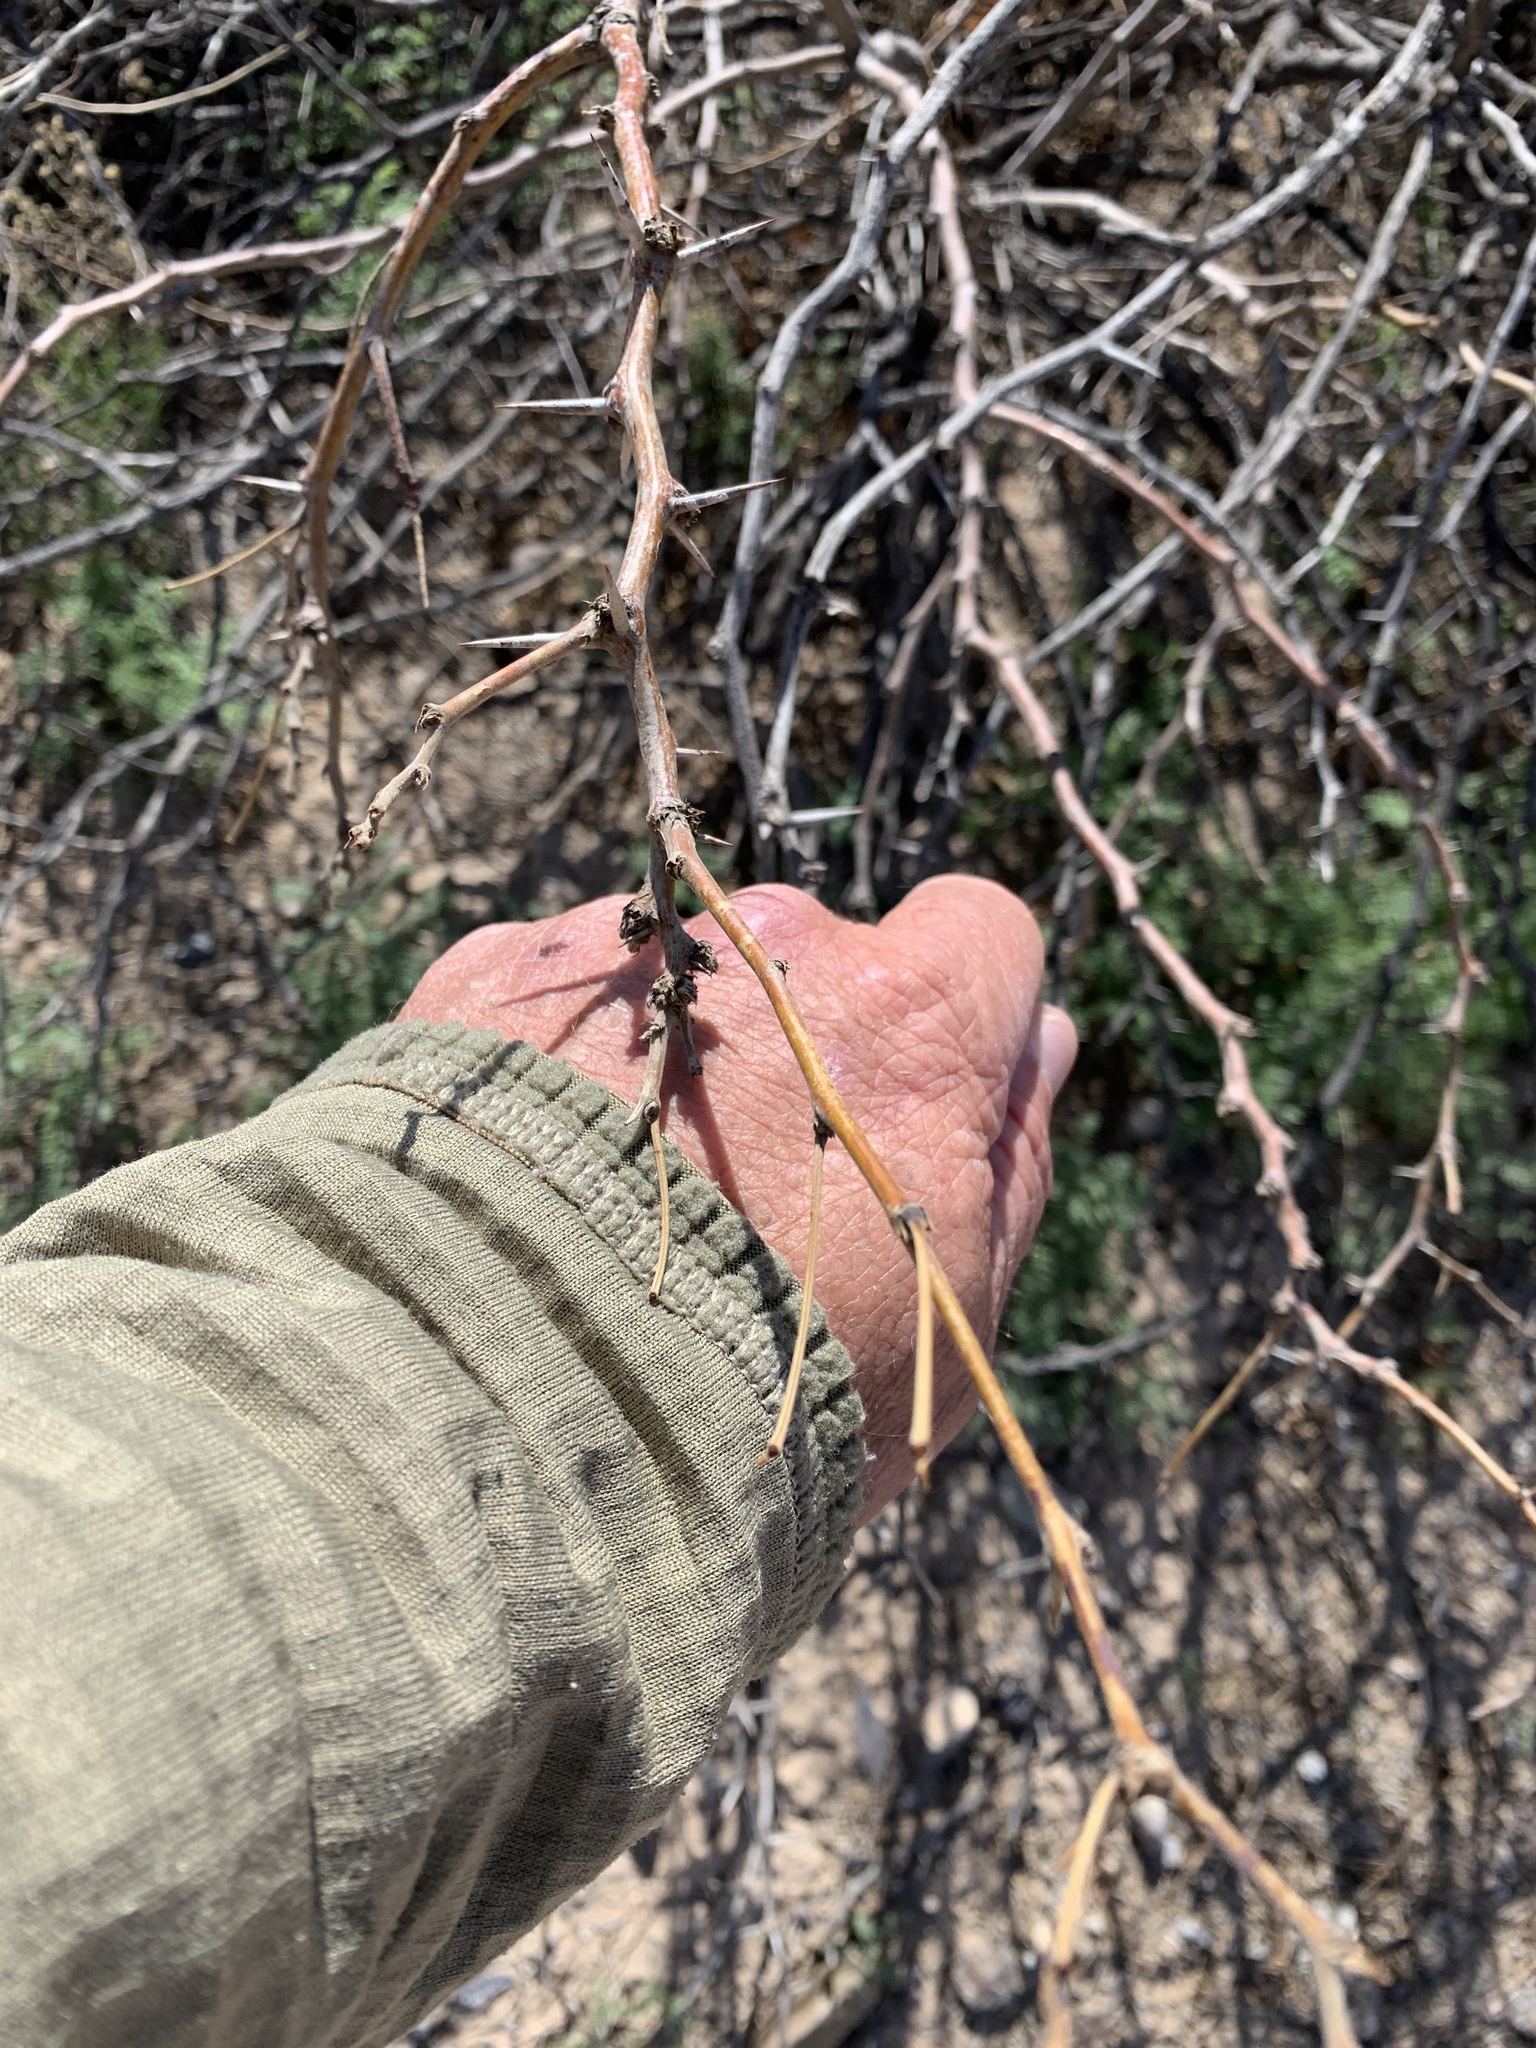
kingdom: Plantae
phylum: Tracheophyta
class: Magnoliopsida
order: Fabales
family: Fabaceae
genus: Prosopis
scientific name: Prosopis glandulosa
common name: Honey mesquite
